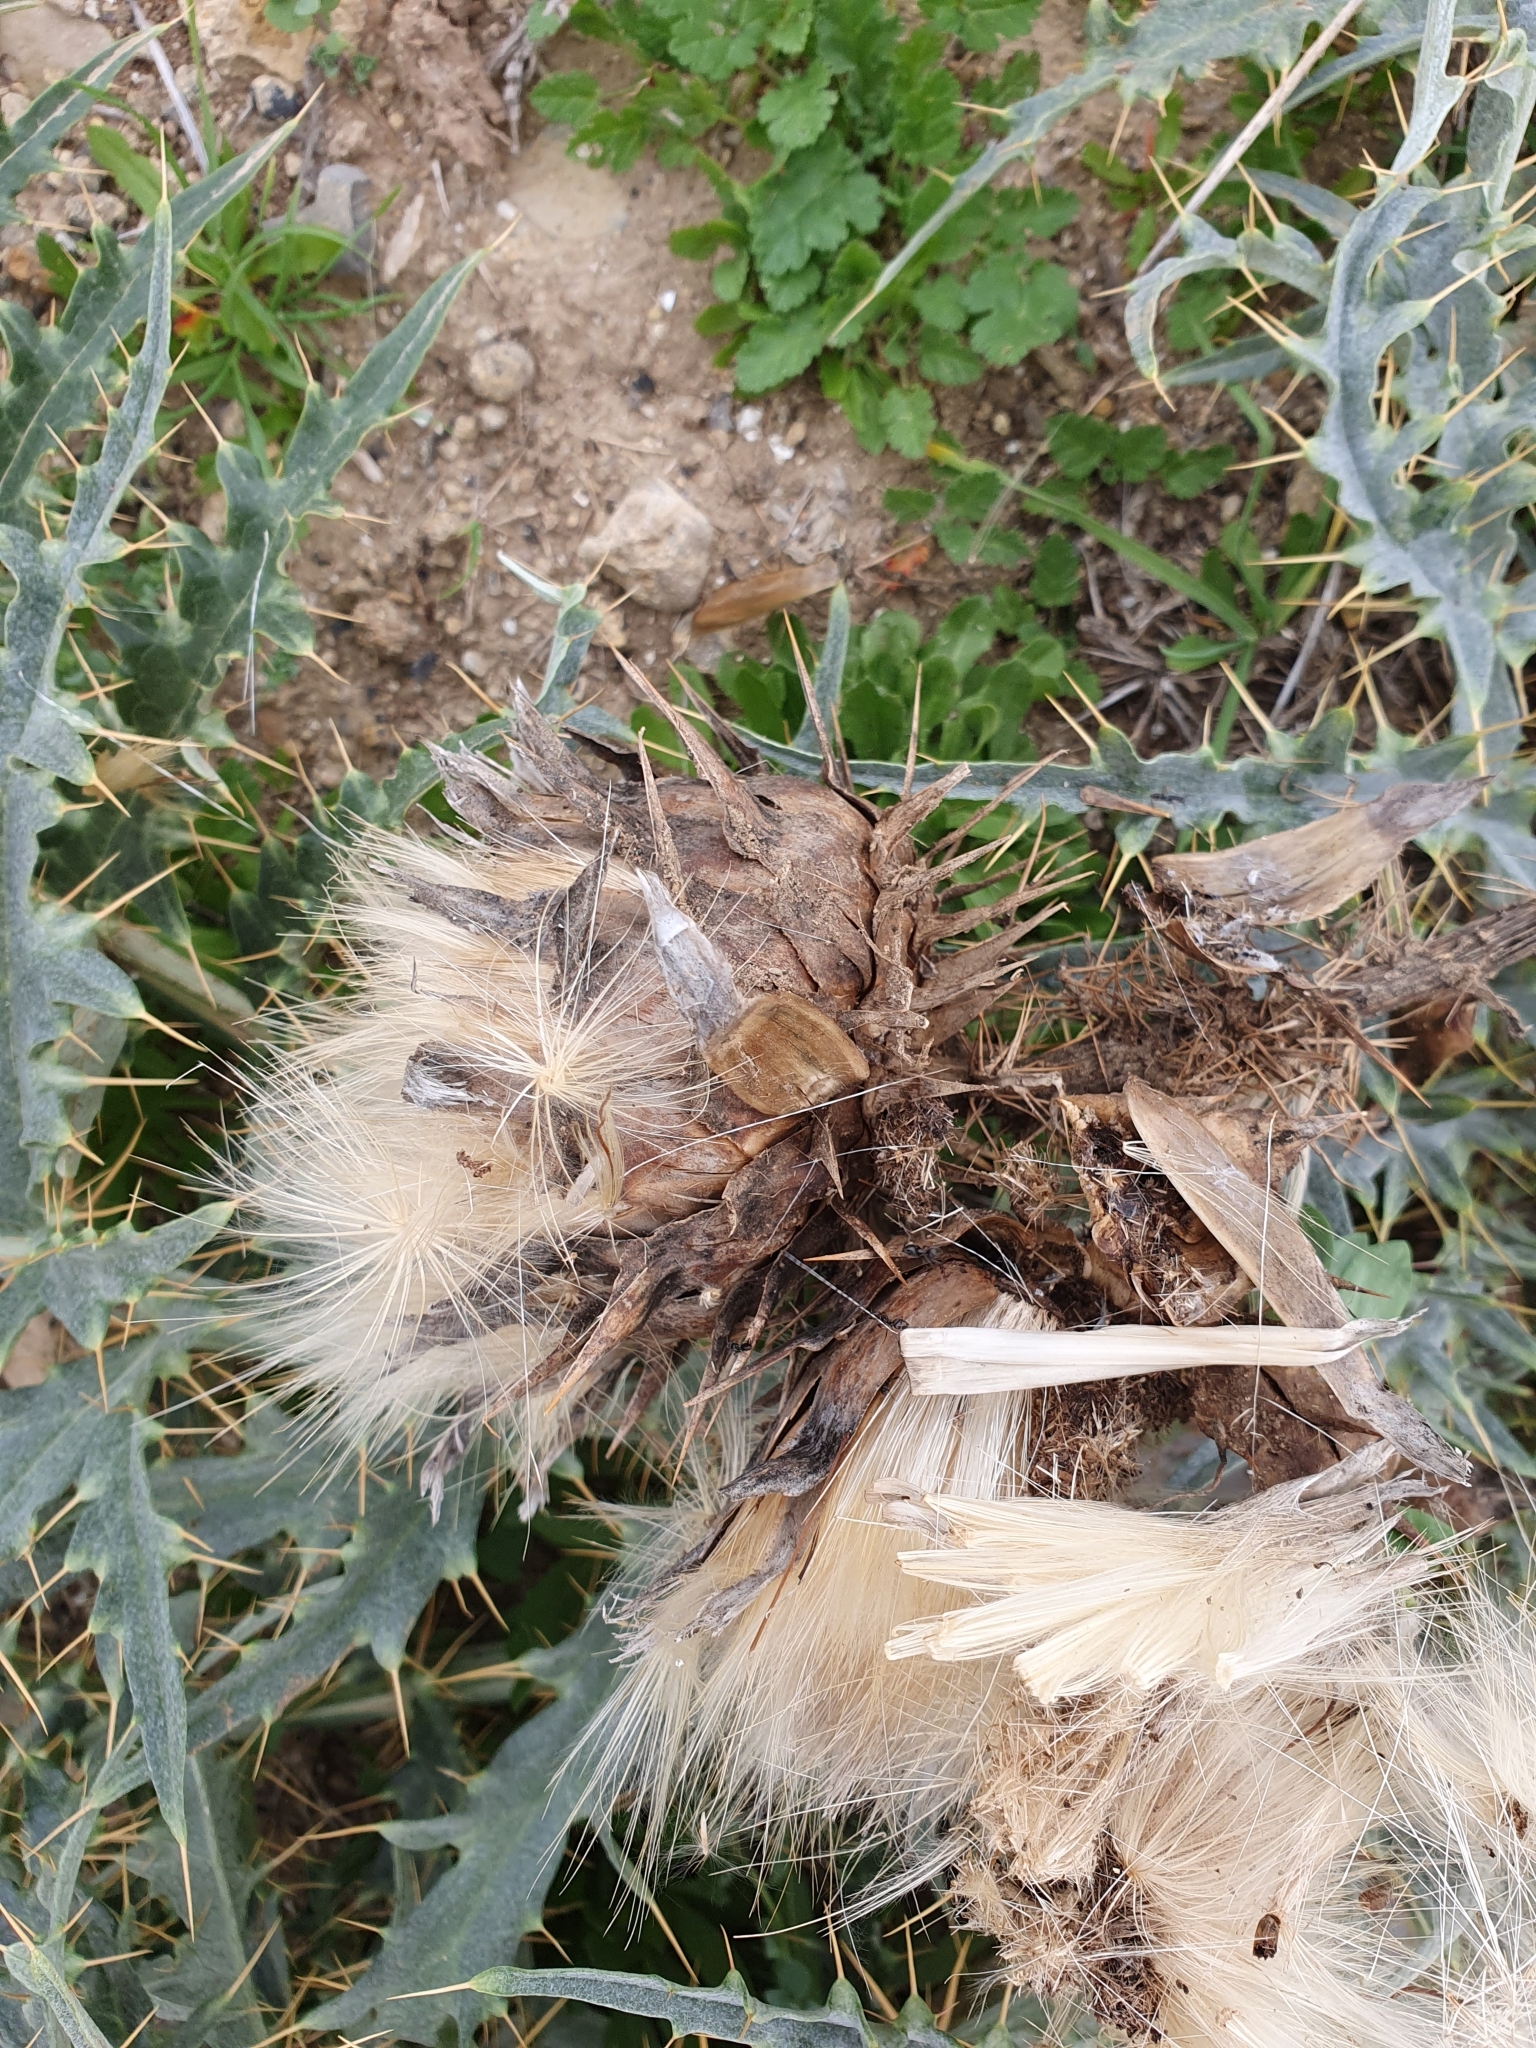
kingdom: Plantae
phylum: Tracheophyta
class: Magnoliopsida
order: Asterales
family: Asteraceae
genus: Cynara
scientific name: Cynara cardunculus
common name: Globe artichoke
